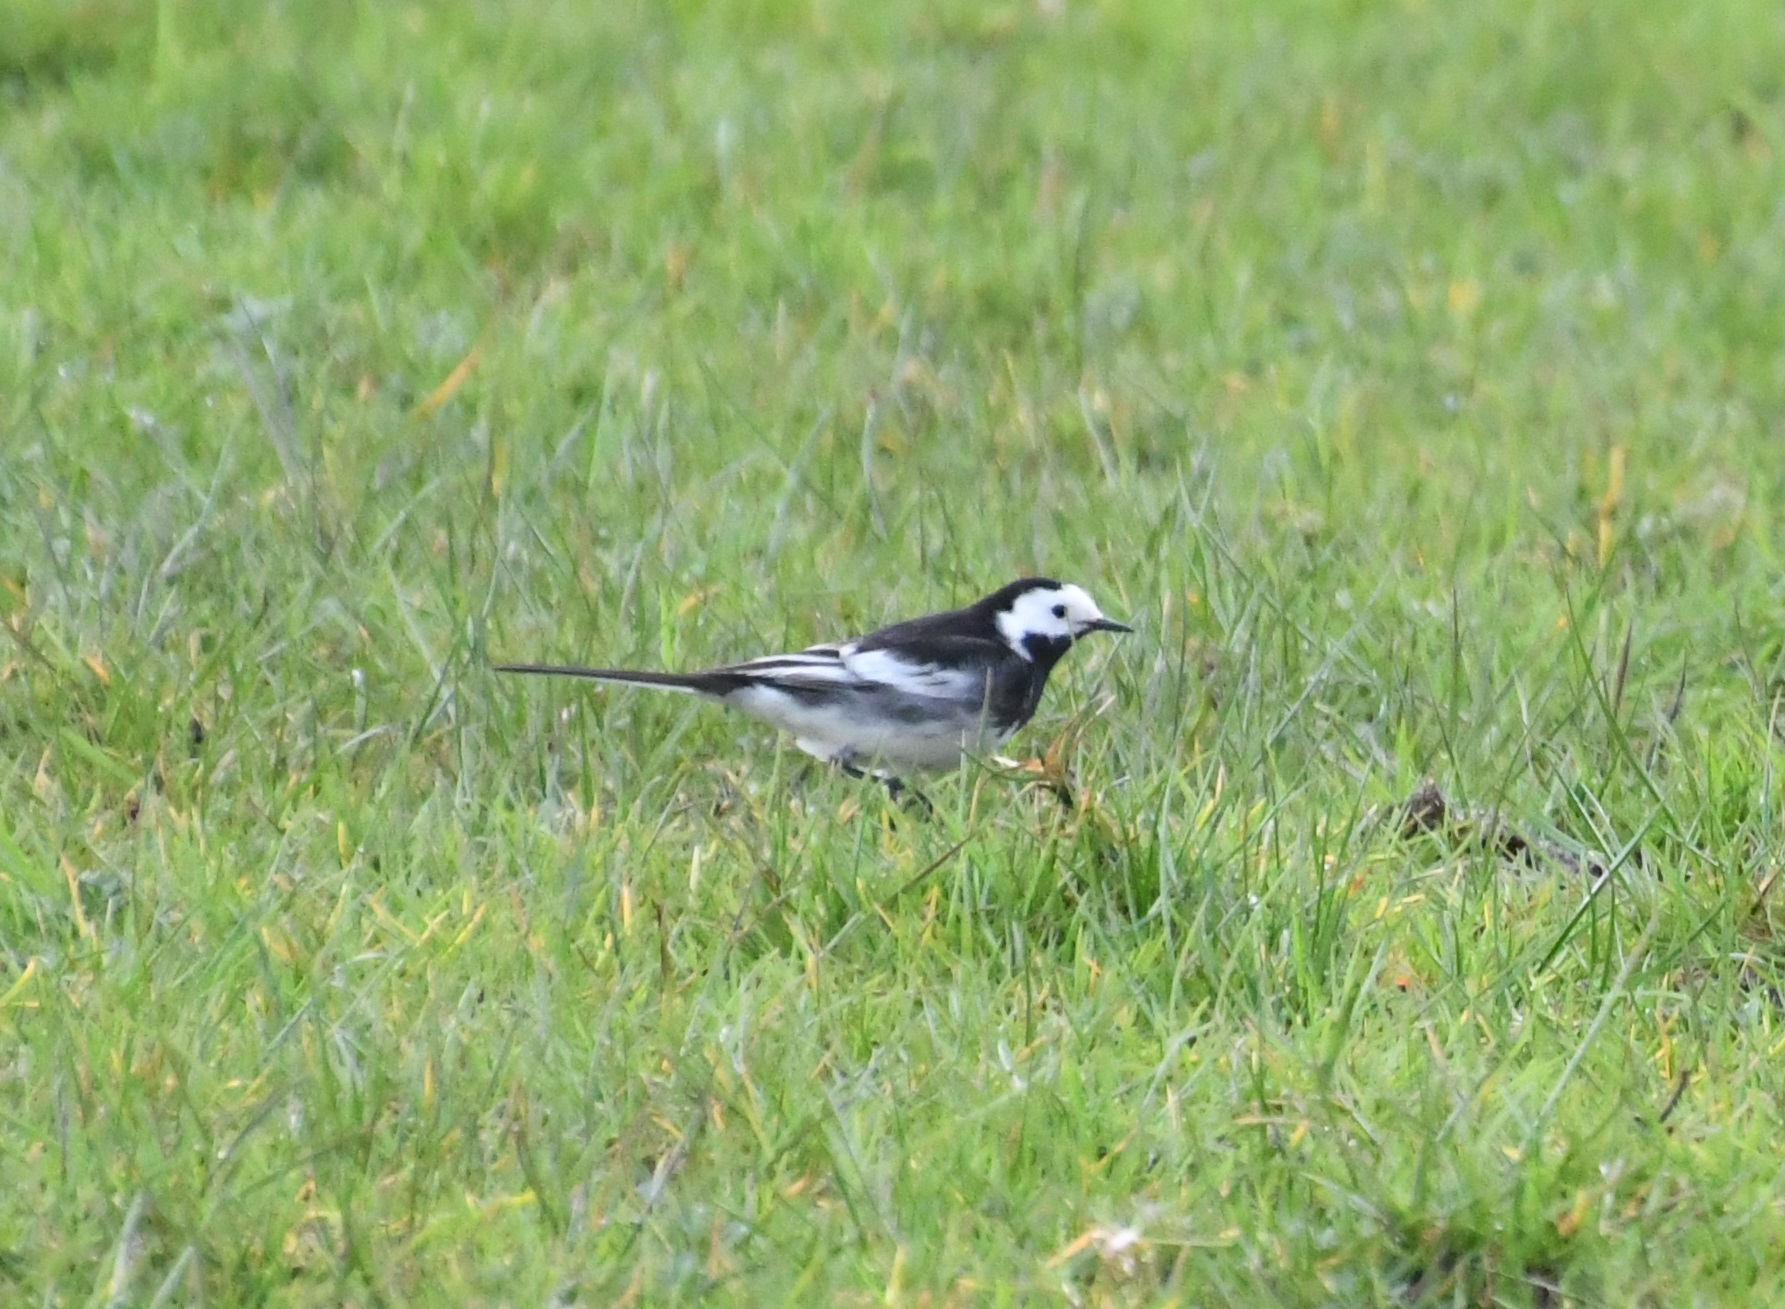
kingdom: Animalia
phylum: Chordata
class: Aves
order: Passeriformes
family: Motacillidae
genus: Motacilla
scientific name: Motacilla alba
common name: White wagtail
